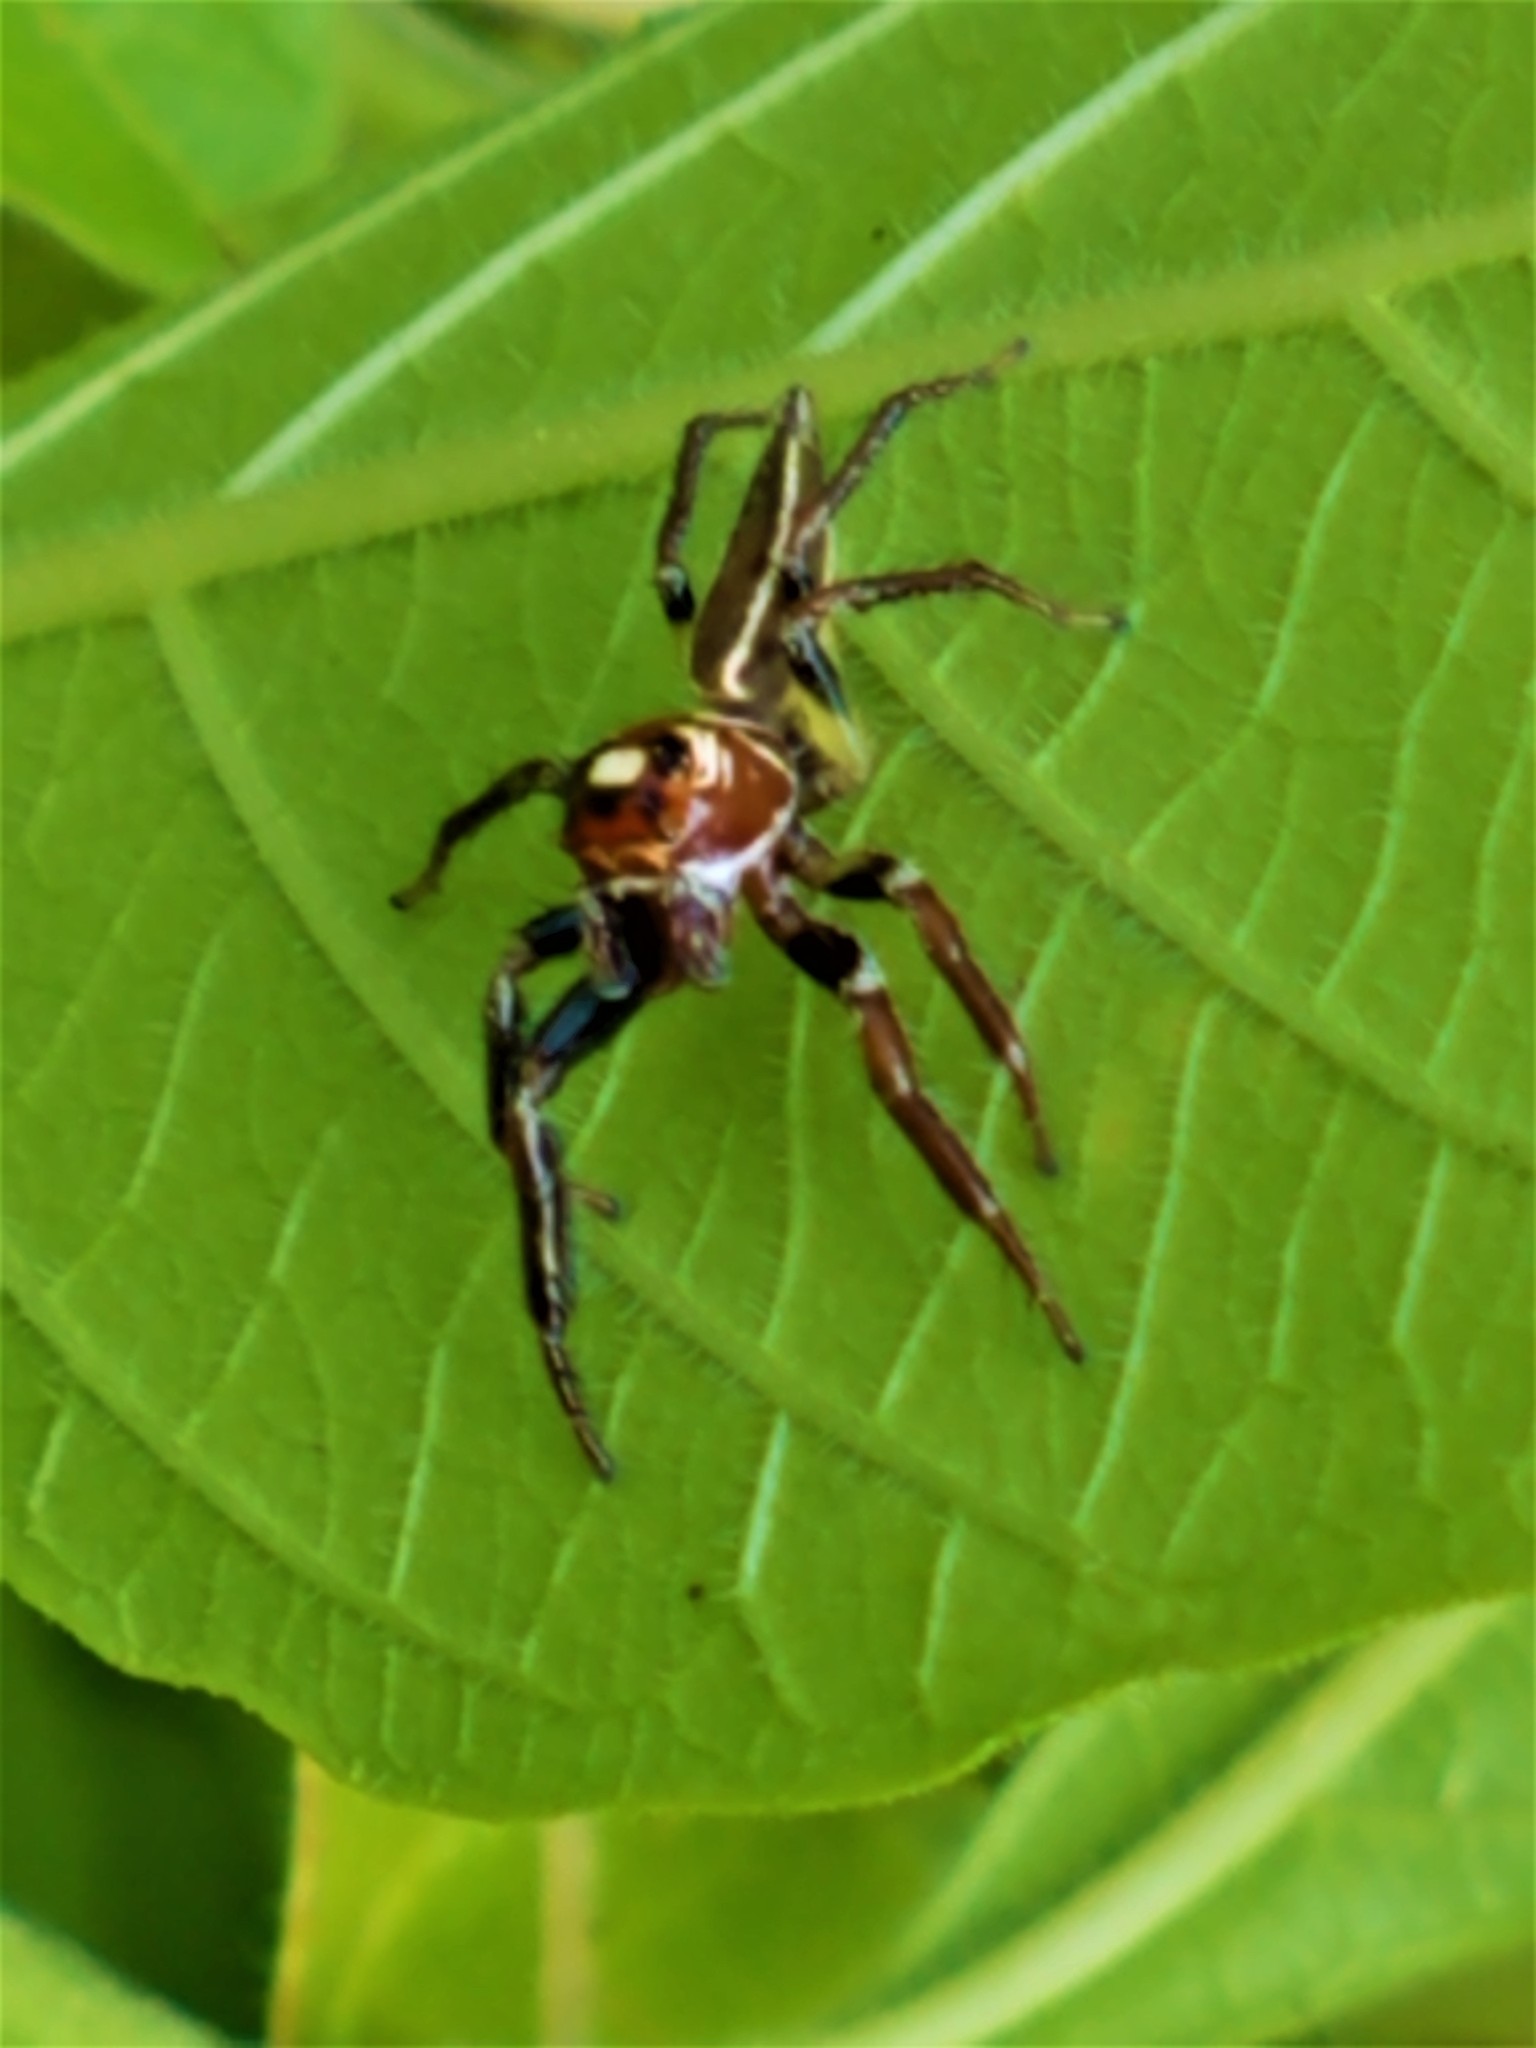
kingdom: Animalia
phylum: Arthropoda
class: Arachnida
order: Araneae
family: Salticidae
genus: Colonus
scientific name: Colonus sylvanus
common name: Jumping spiders
